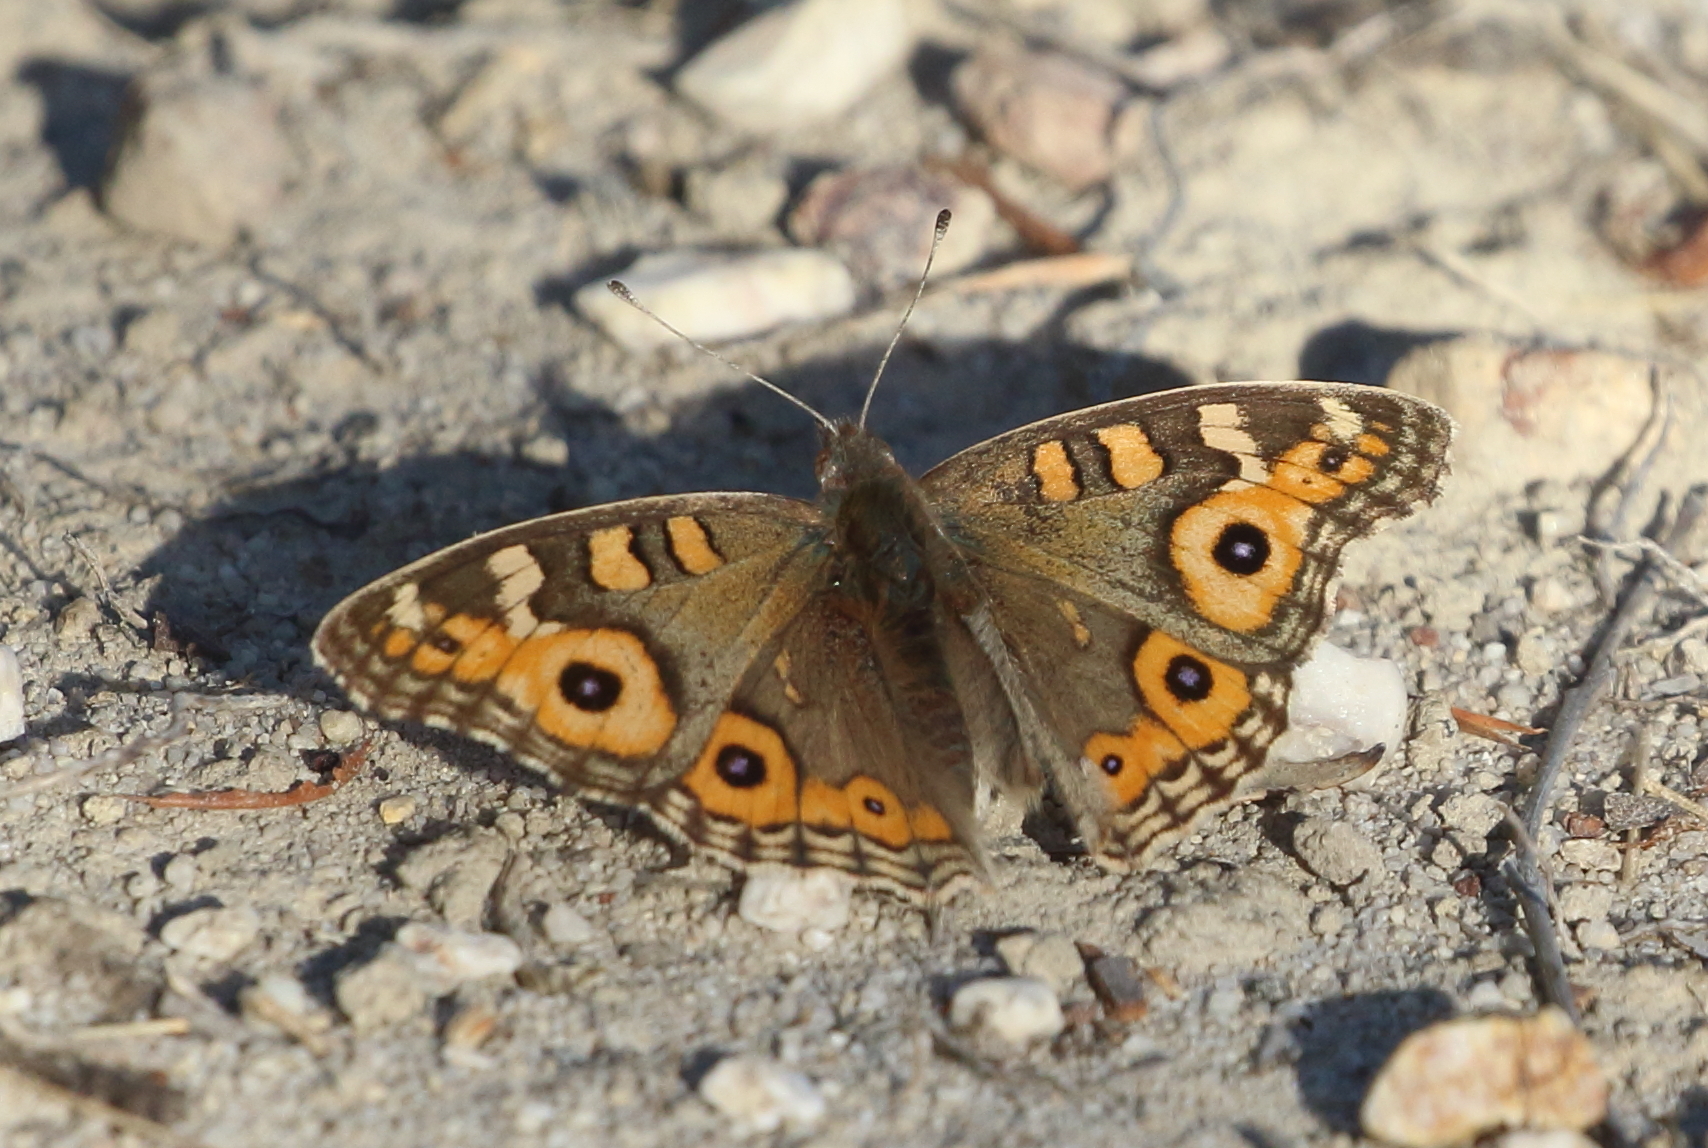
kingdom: Animalia
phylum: Arthropoda
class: Insecta
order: Lepidoptera
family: Nymphalidae
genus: Junonia
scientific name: Junonia villida
